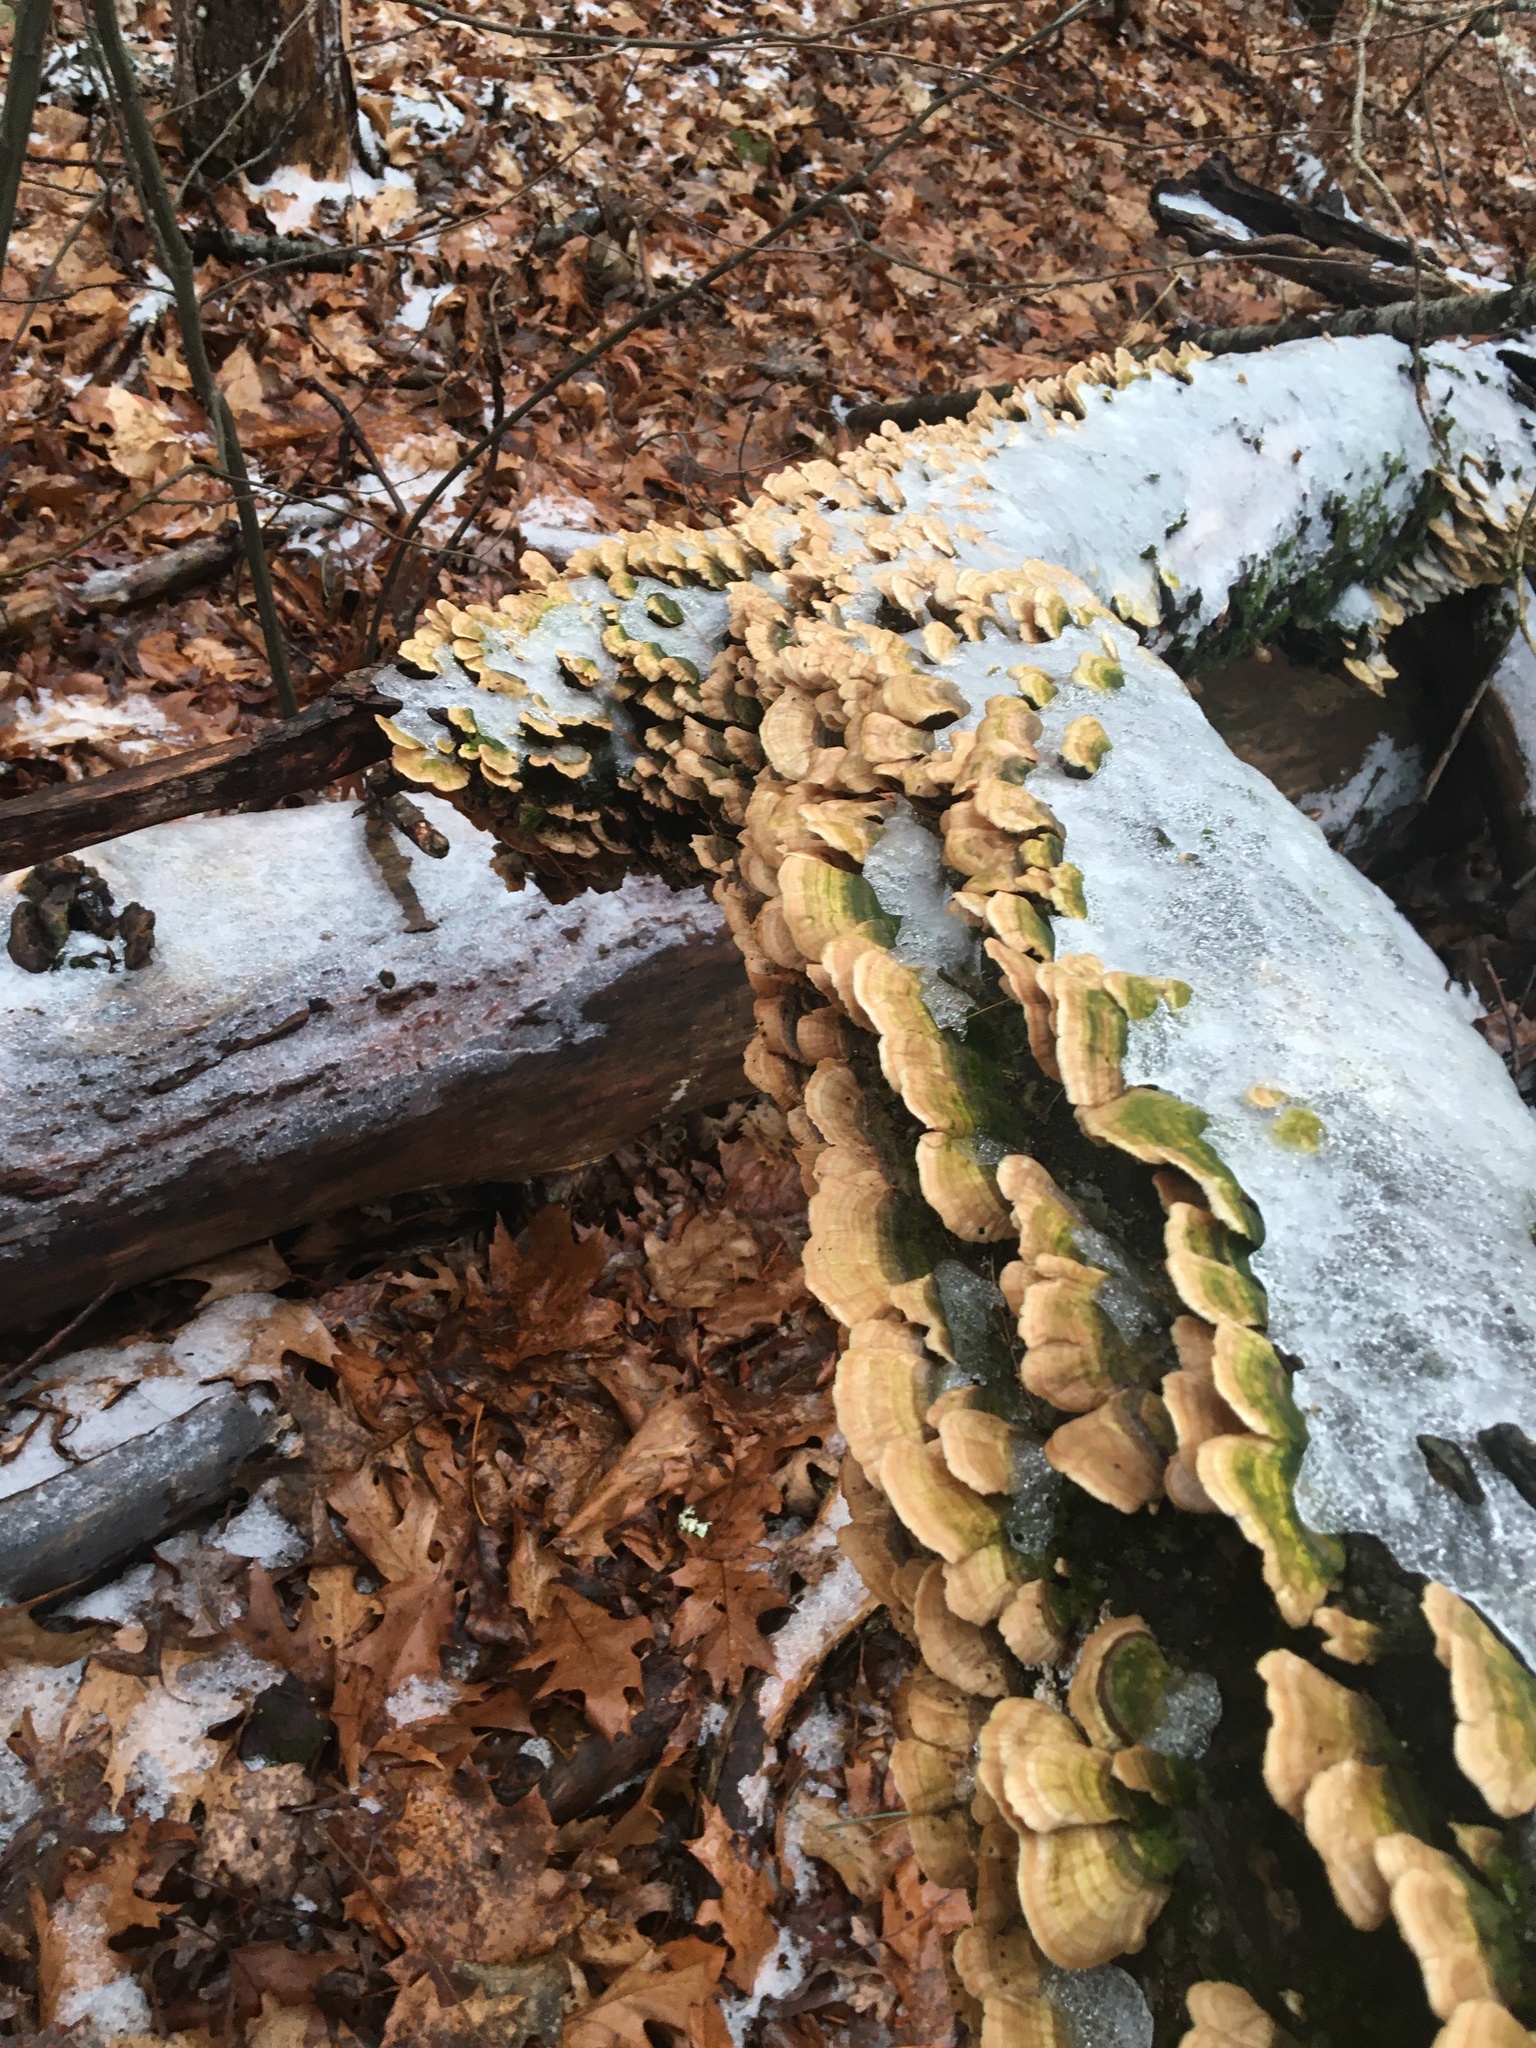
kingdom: Fungi
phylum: Basidiomycota
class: Agaricomycetes
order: Hymenochaetales
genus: Trichaptum
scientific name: Trichaptum biforme
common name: Violet-toothed polypore
